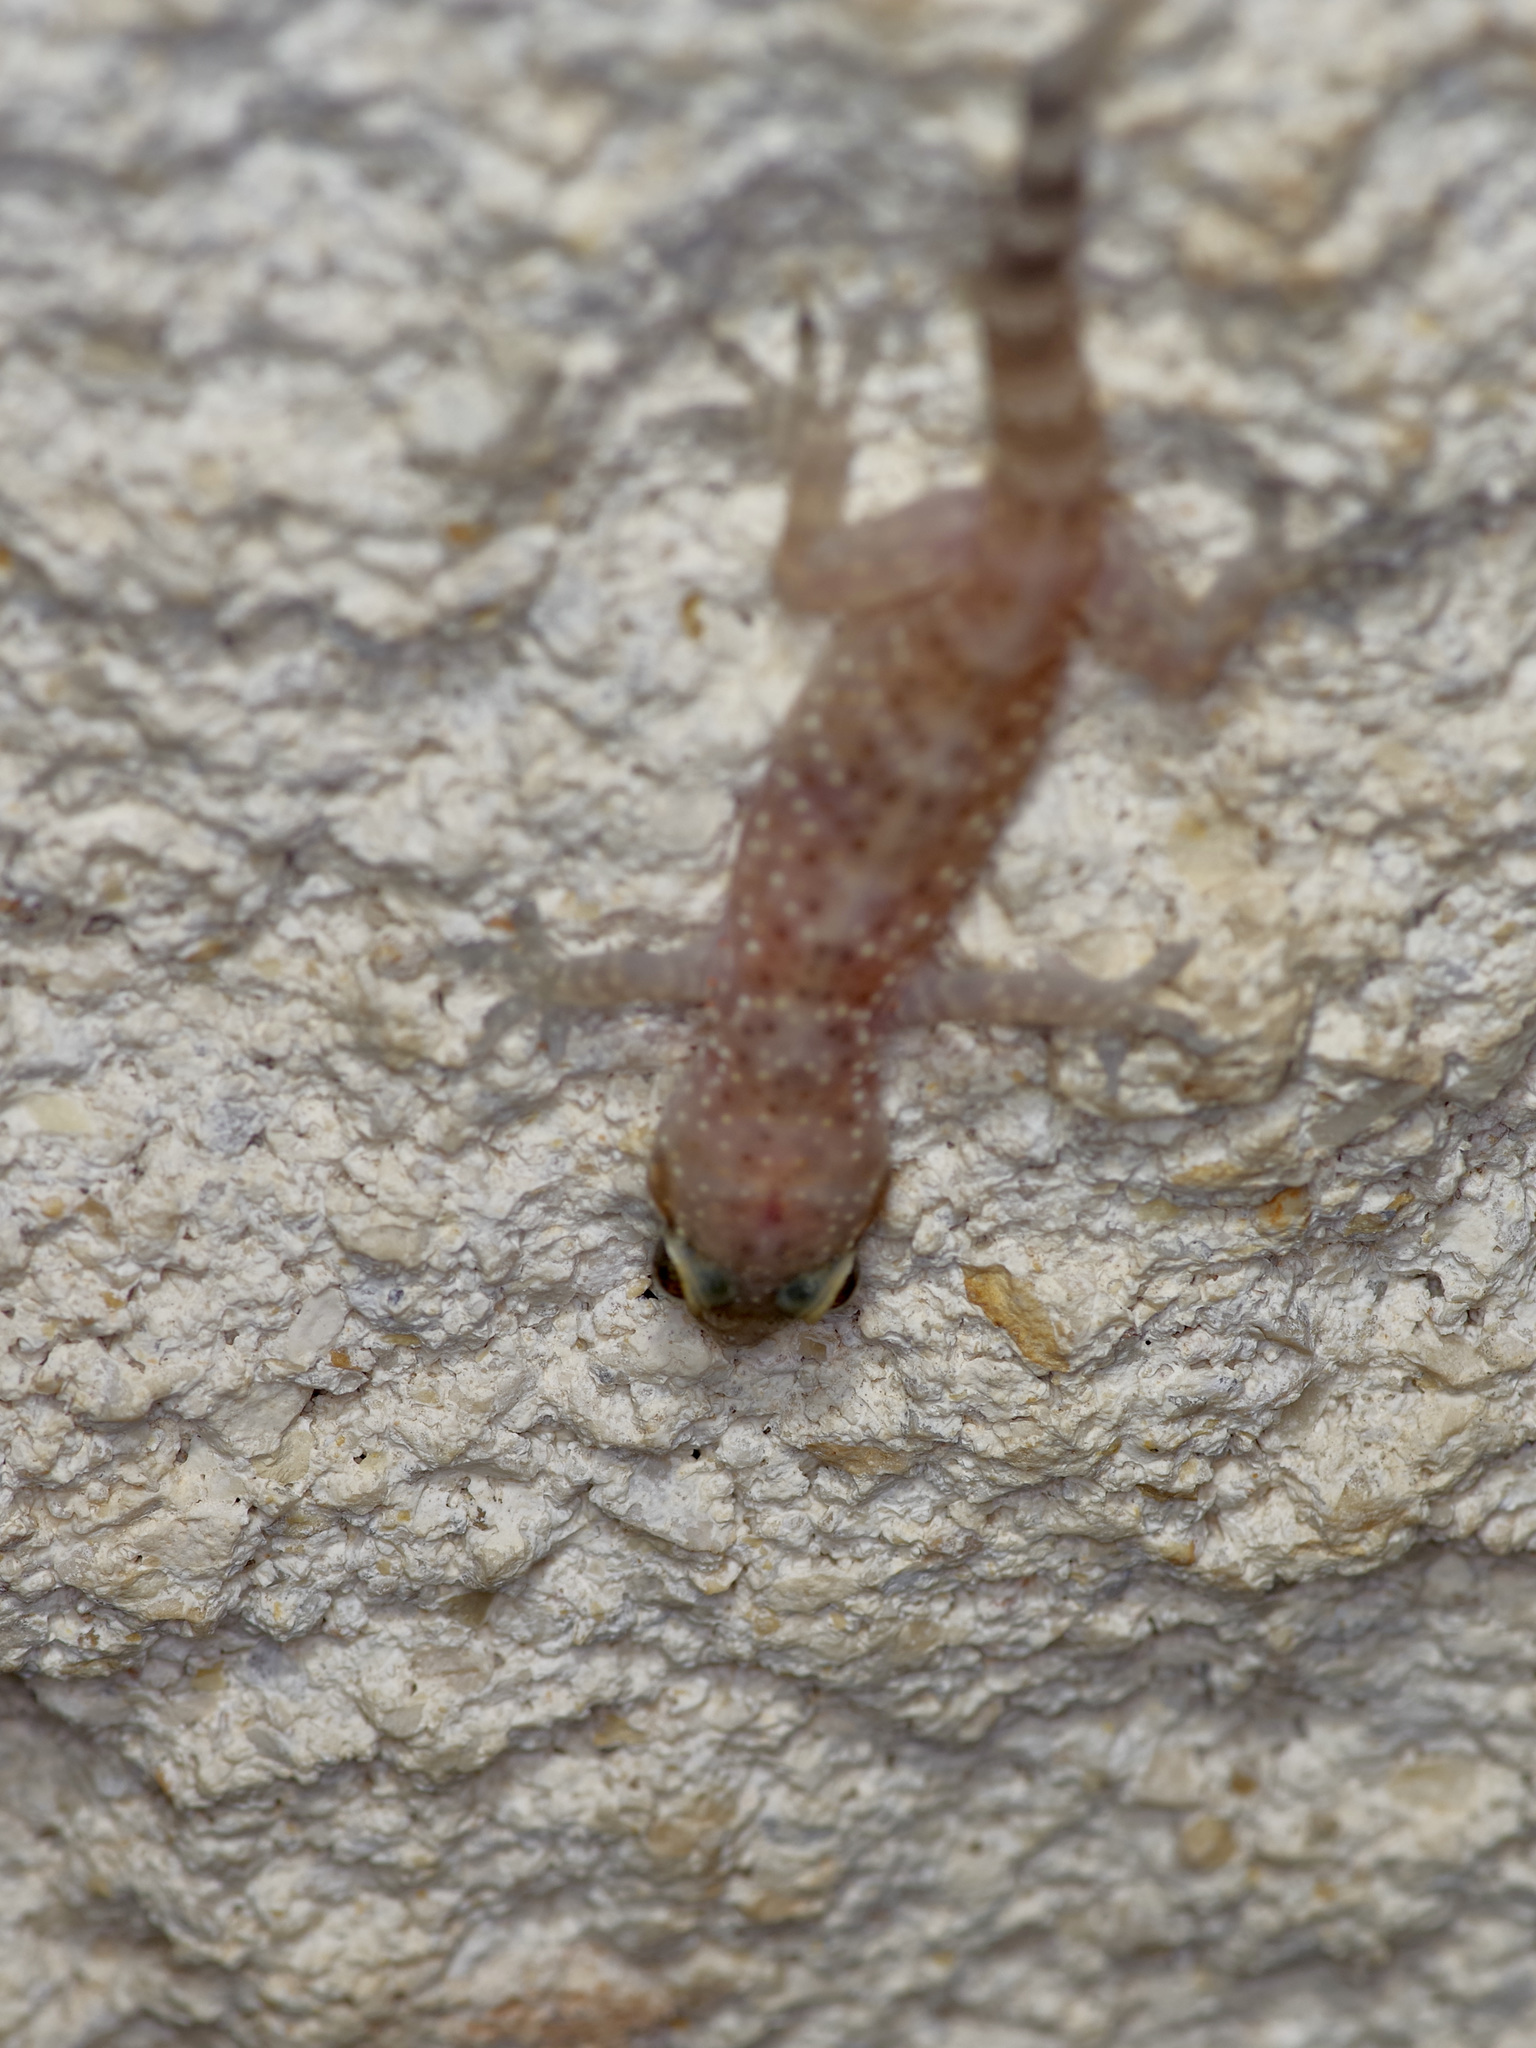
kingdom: Animalia
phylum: Chordata
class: Squamata
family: Gekkonidae
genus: Hemidactylus
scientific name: Hemidactylus turcicus
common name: Turkish gecko
